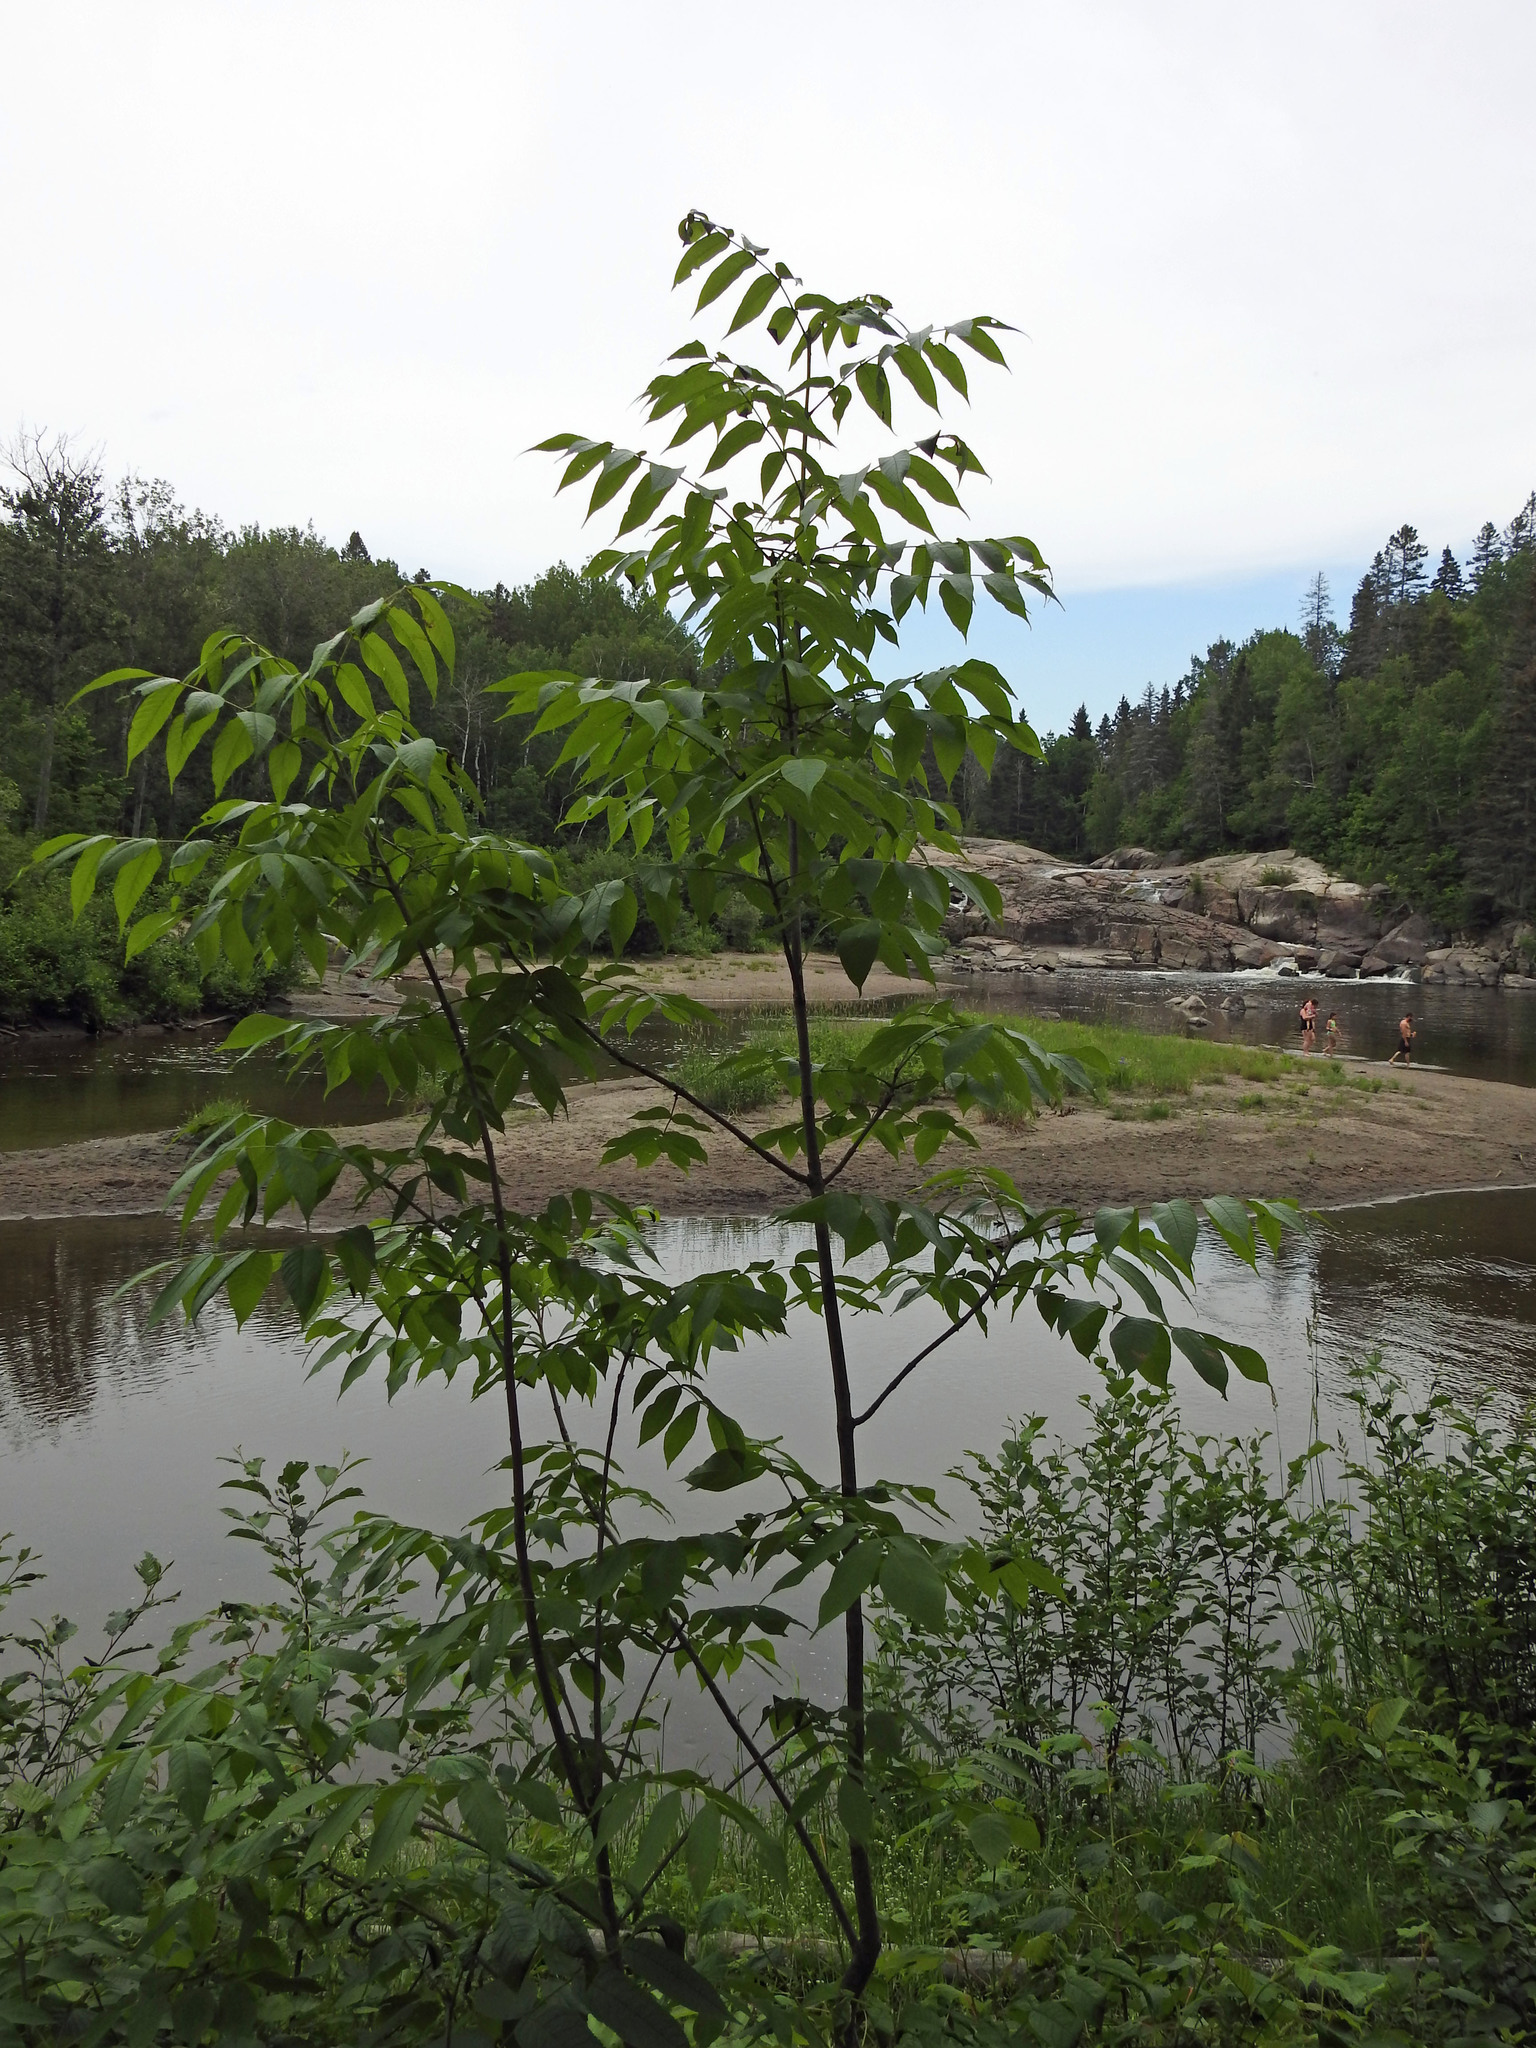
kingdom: Plantae
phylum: Tracheophyta
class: Magnoliopsida
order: Lamiales
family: Oleaceae
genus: Fraxinus
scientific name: Fraxinus nigra
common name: Black ash
